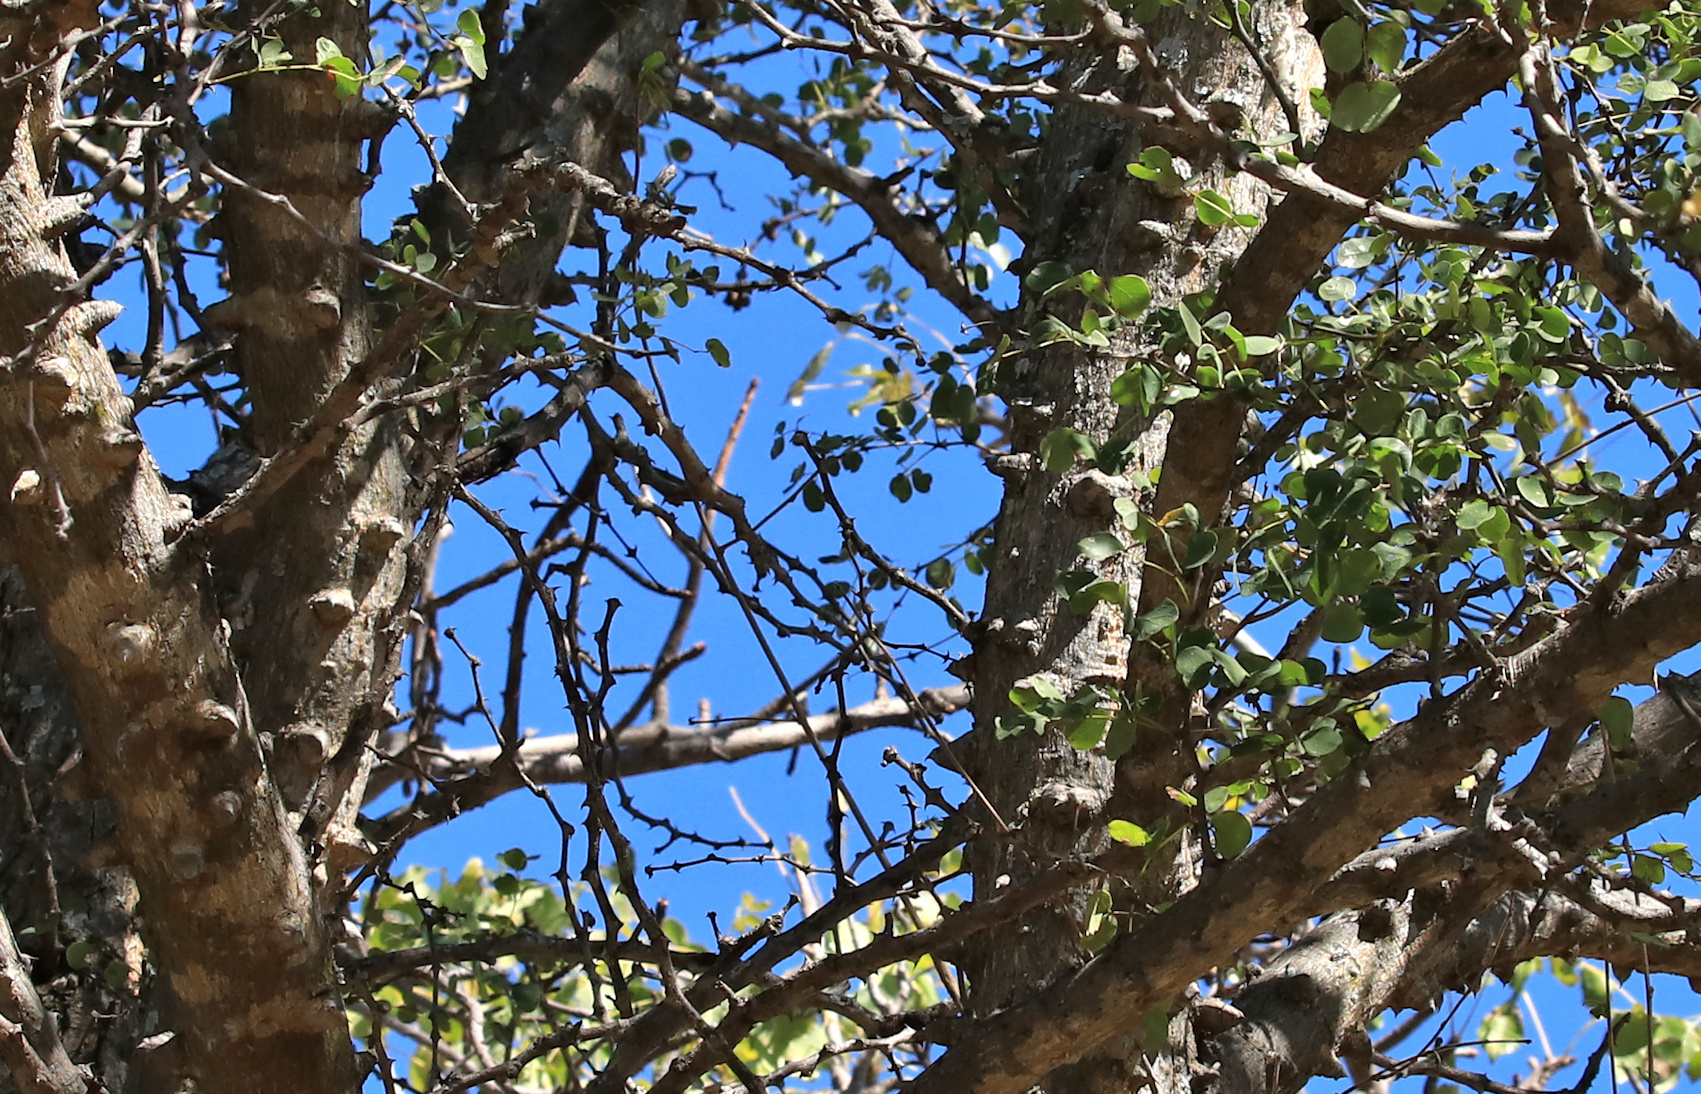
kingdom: Plantae
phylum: Tracheophyta
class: Magnoliopsida
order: Fabales
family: Fabaceae
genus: Senegalia
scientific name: Senegalia nigrescens
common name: Knobthorn
